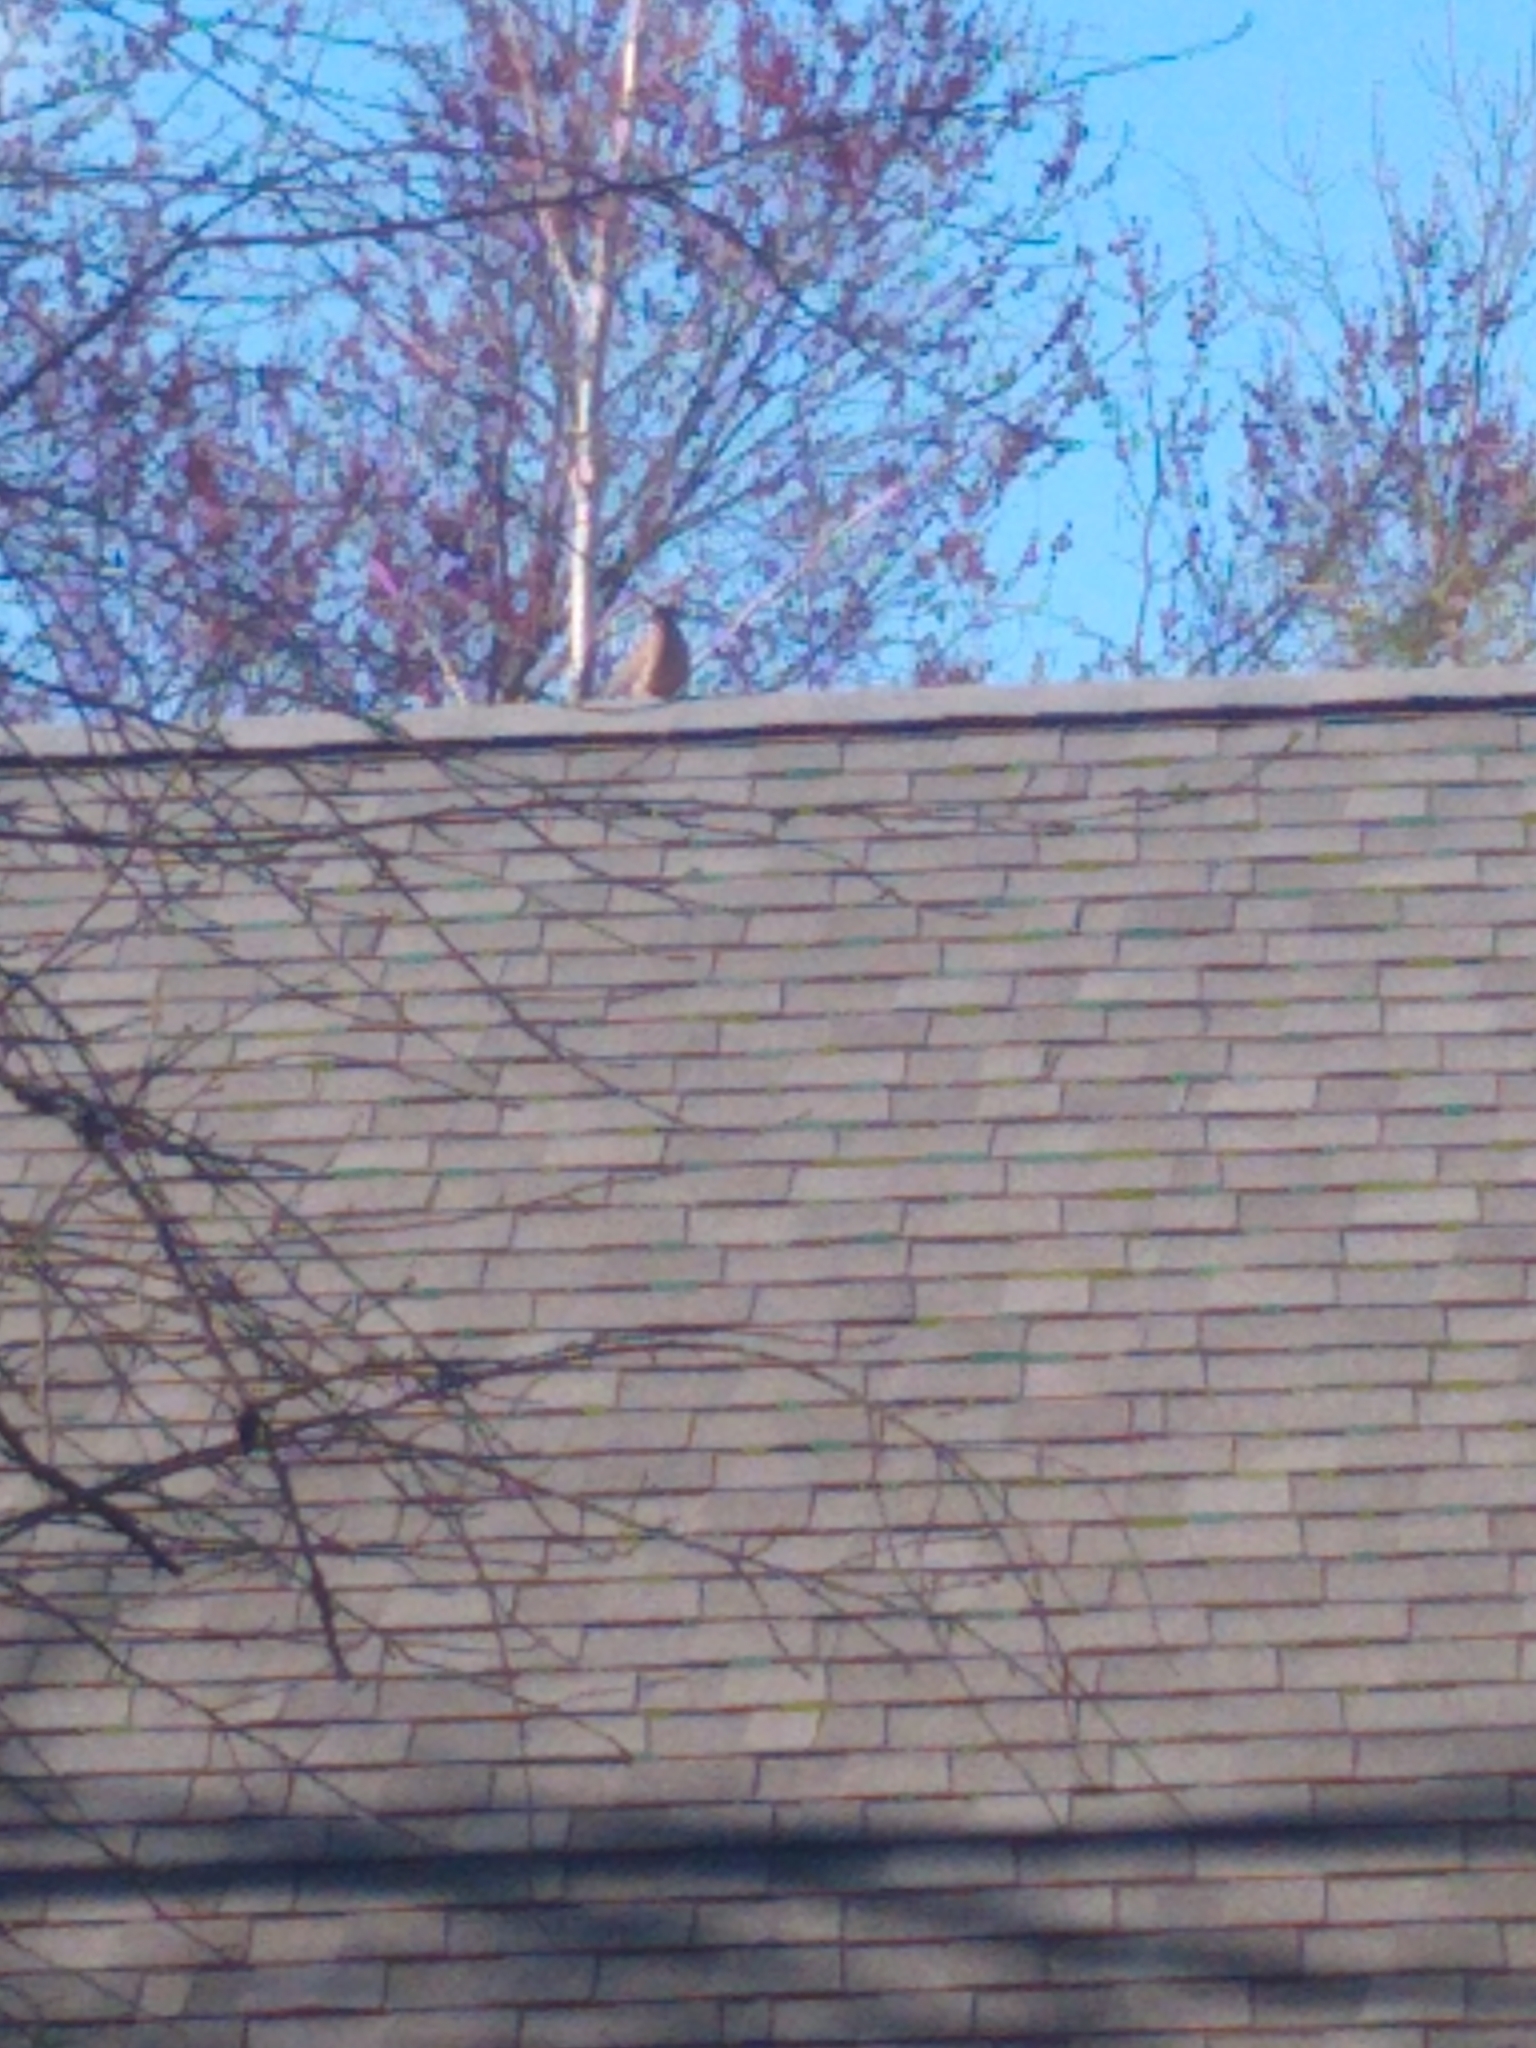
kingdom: Animalia
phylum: Chordata
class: Aves
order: Columbiformes
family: Columbidae
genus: Zenaida
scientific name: Zenaida macroura
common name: Mourning dove
